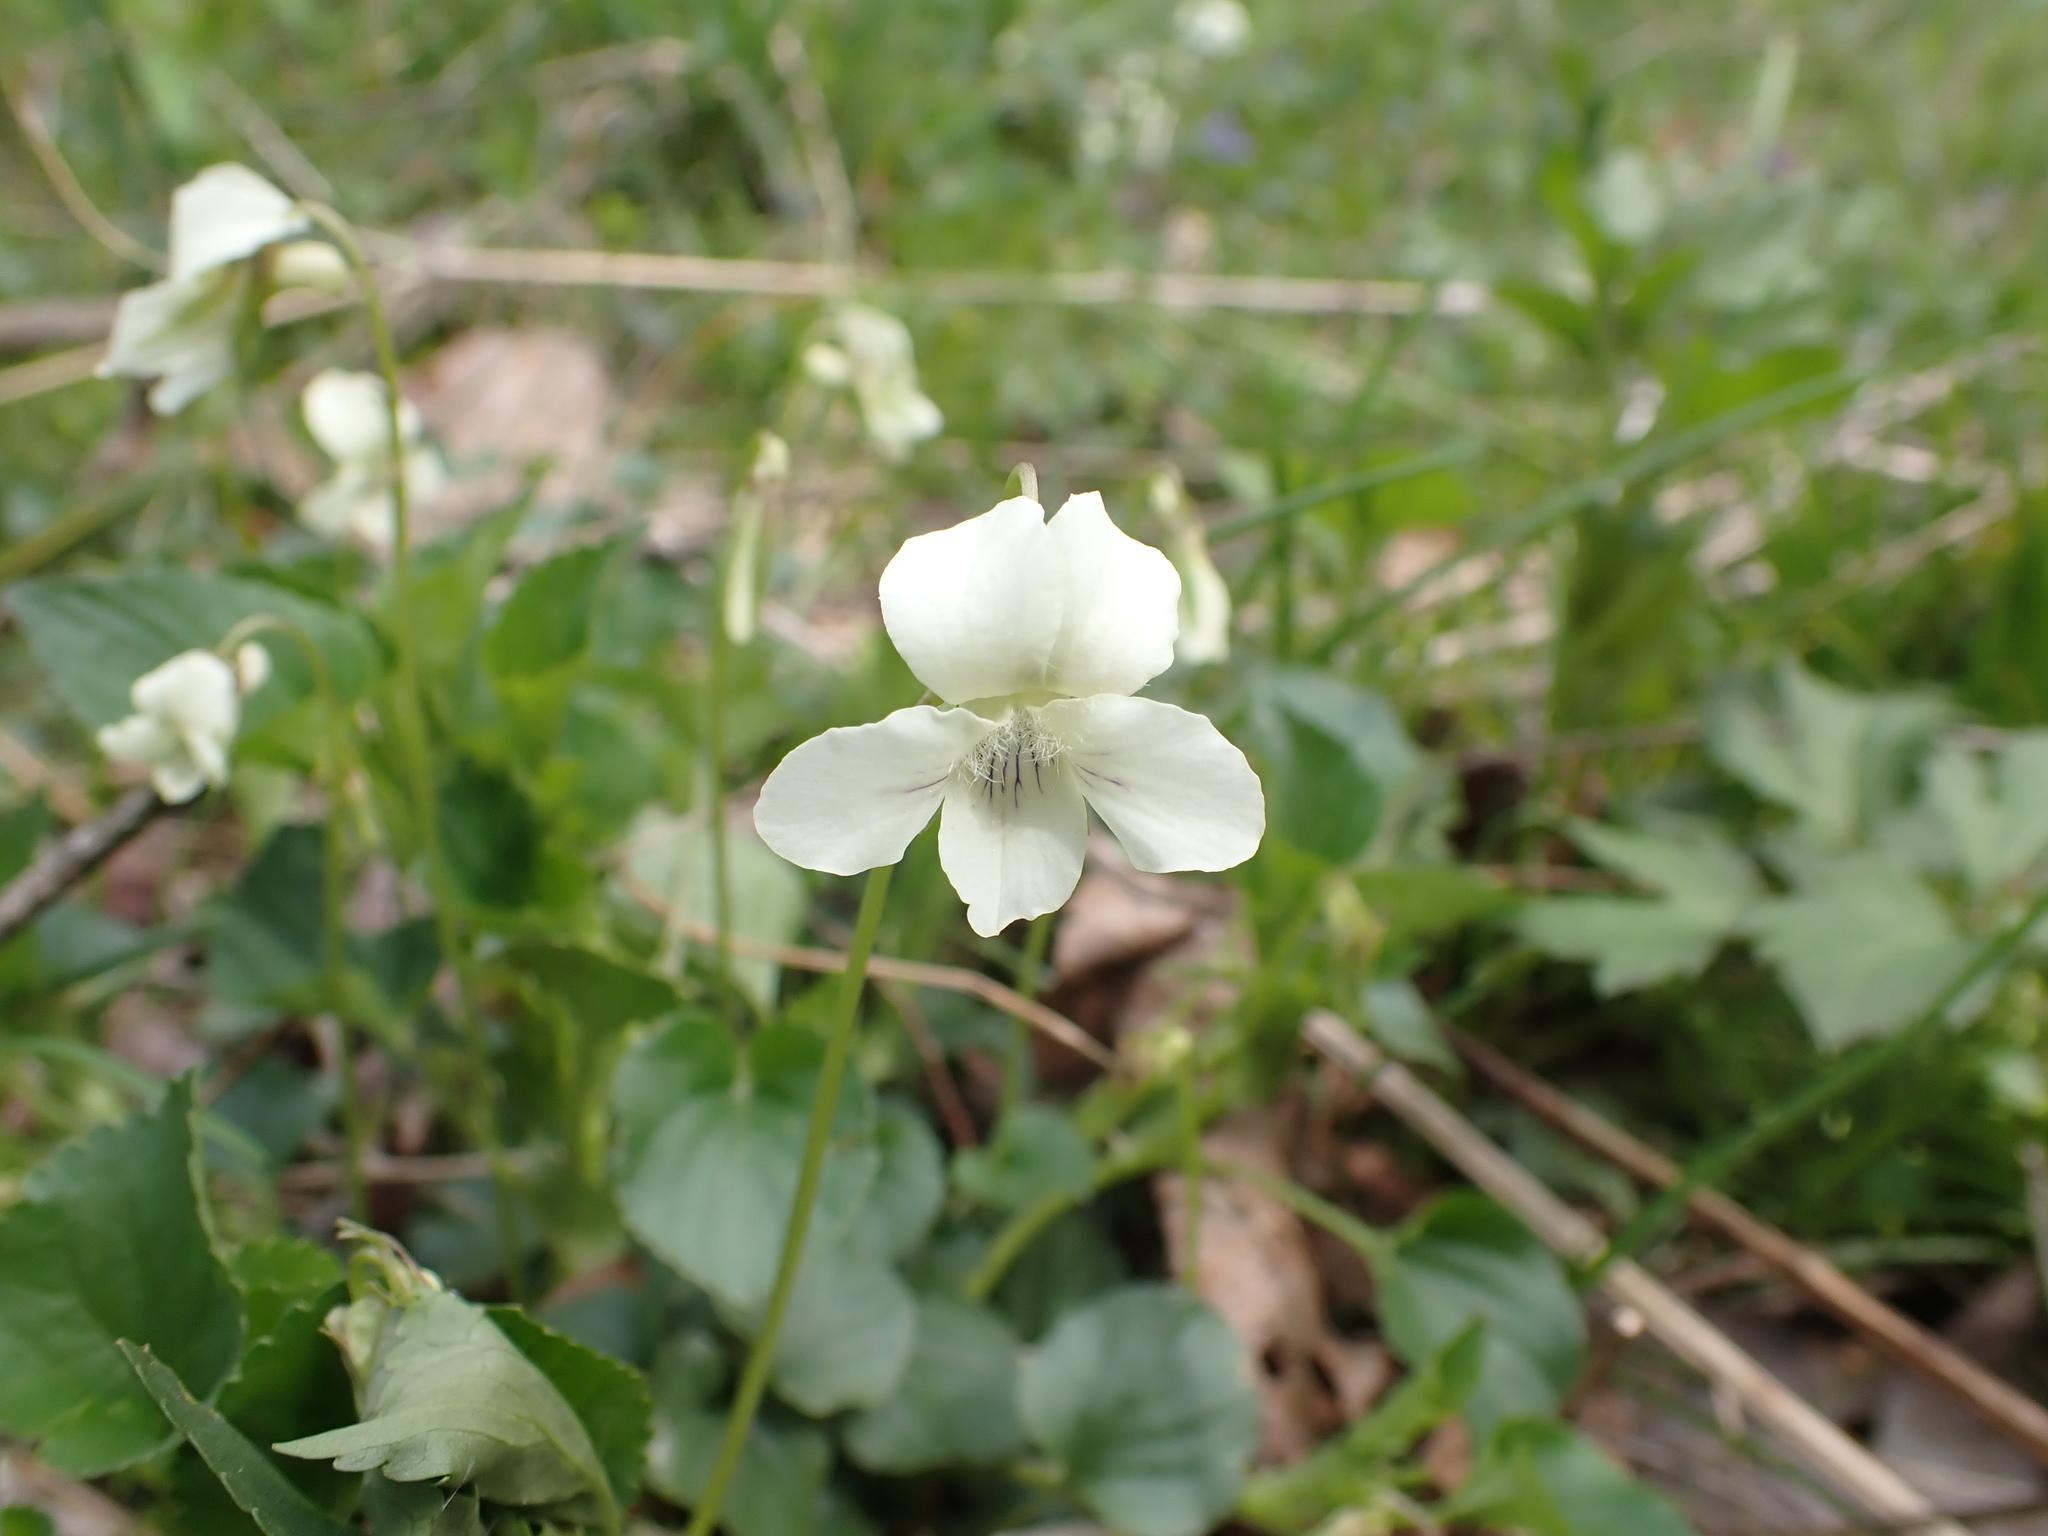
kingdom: Plantae
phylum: Tracheophyta
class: Magnoliopsida
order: Malpighiales
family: Violaceae
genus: Viola
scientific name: Viola striata
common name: Cream violet
